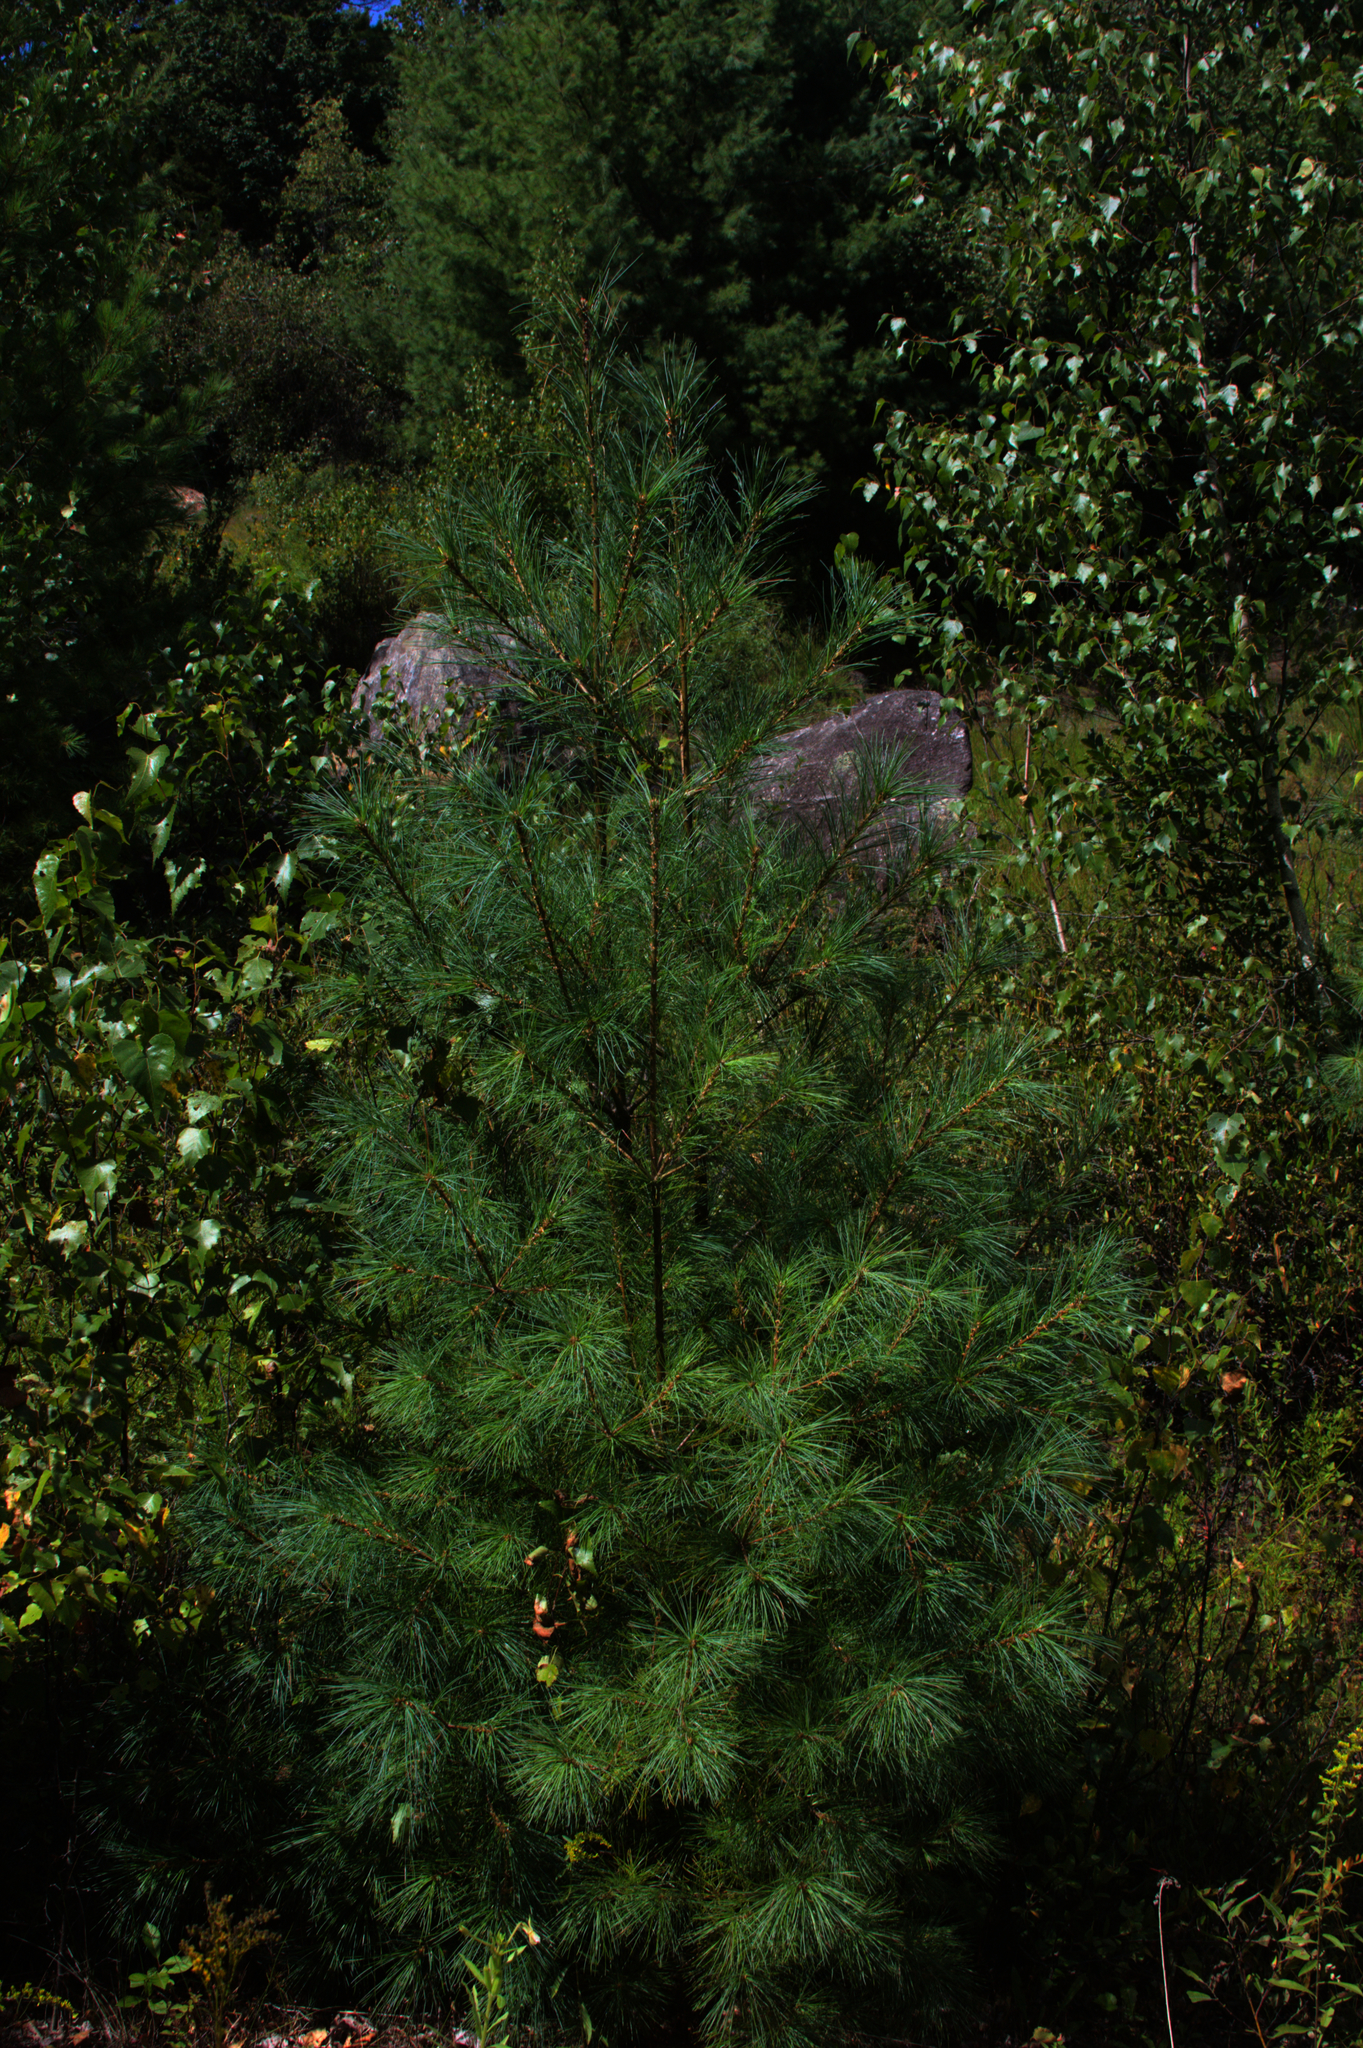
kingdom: Plantae
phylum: Tracheophyta
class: Pinopsida
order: Pinales
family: Pinaceae
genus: Pinus
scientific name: Pinus strobus
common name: Weymouth pine
